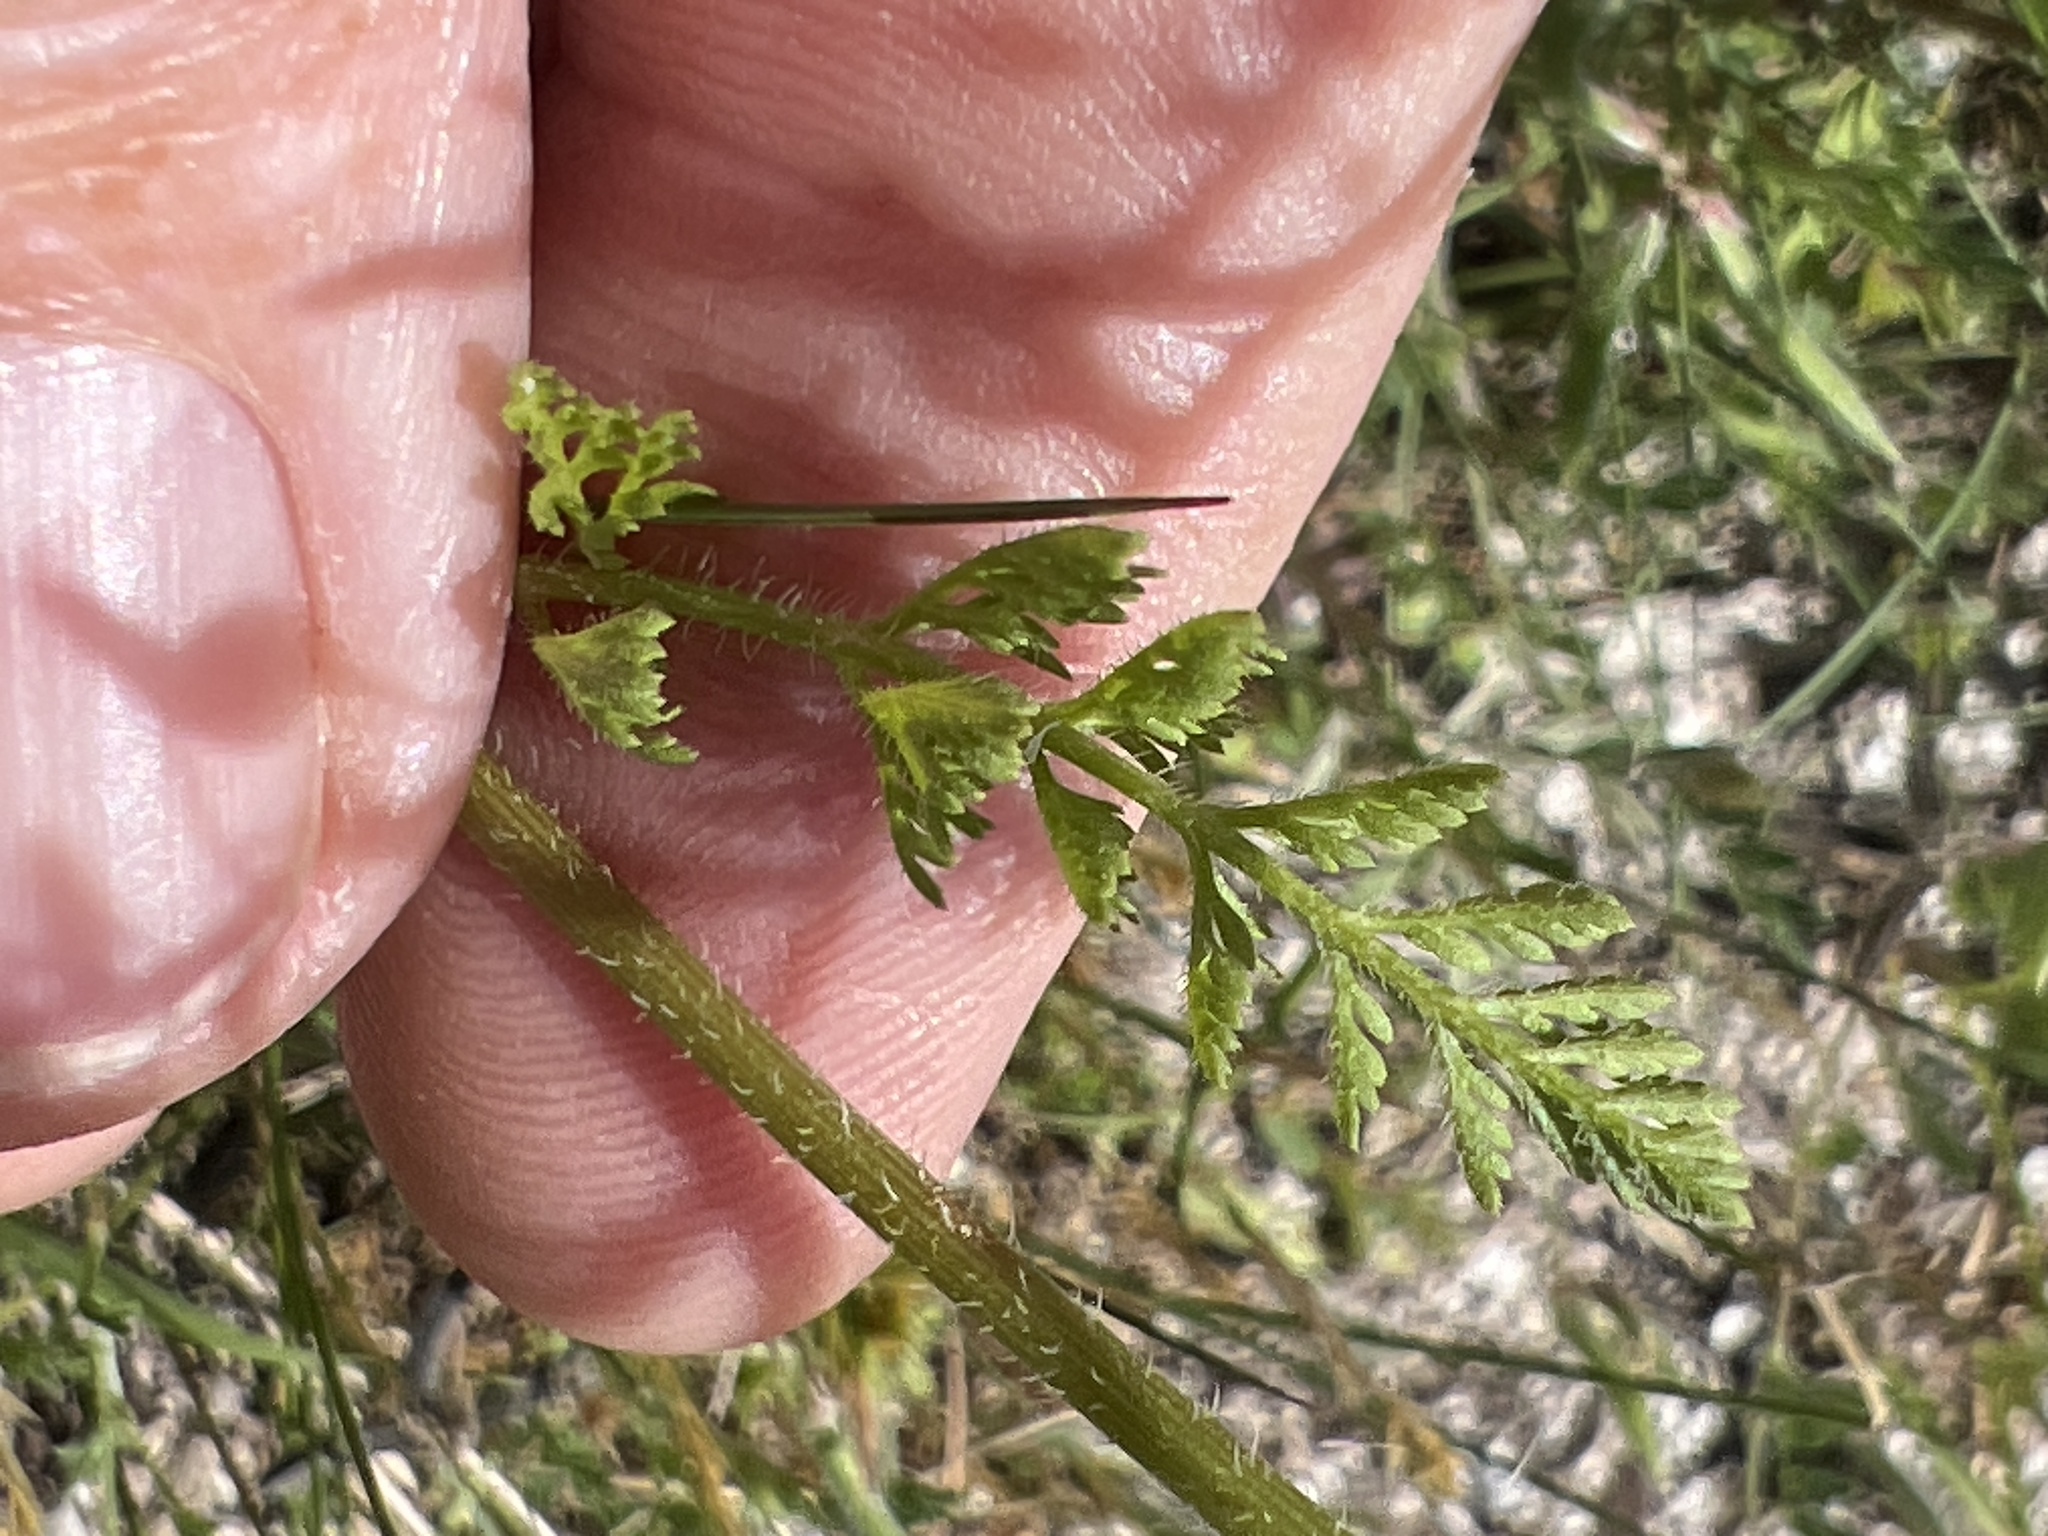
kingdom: Plantae
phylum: Tracheophyta
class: Magnoliopsida
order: Apiales
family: Apiaceae
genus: Daucus
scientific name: Daucus pusillus
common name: Southwest wild carrot
